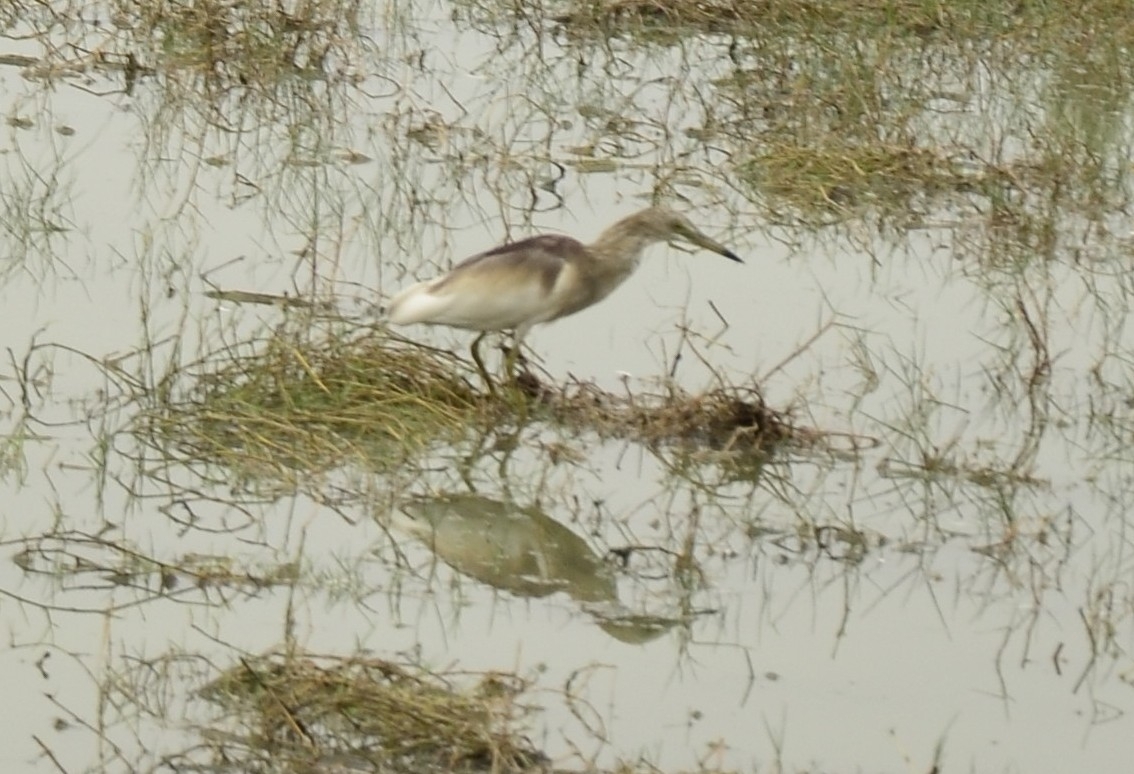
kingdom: Animalia
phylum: Chordata
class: Aves
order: Pelecaniformes
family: Ardeidae
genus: Ardeola
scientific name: Ardeola grayii
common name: Indian pond heron
